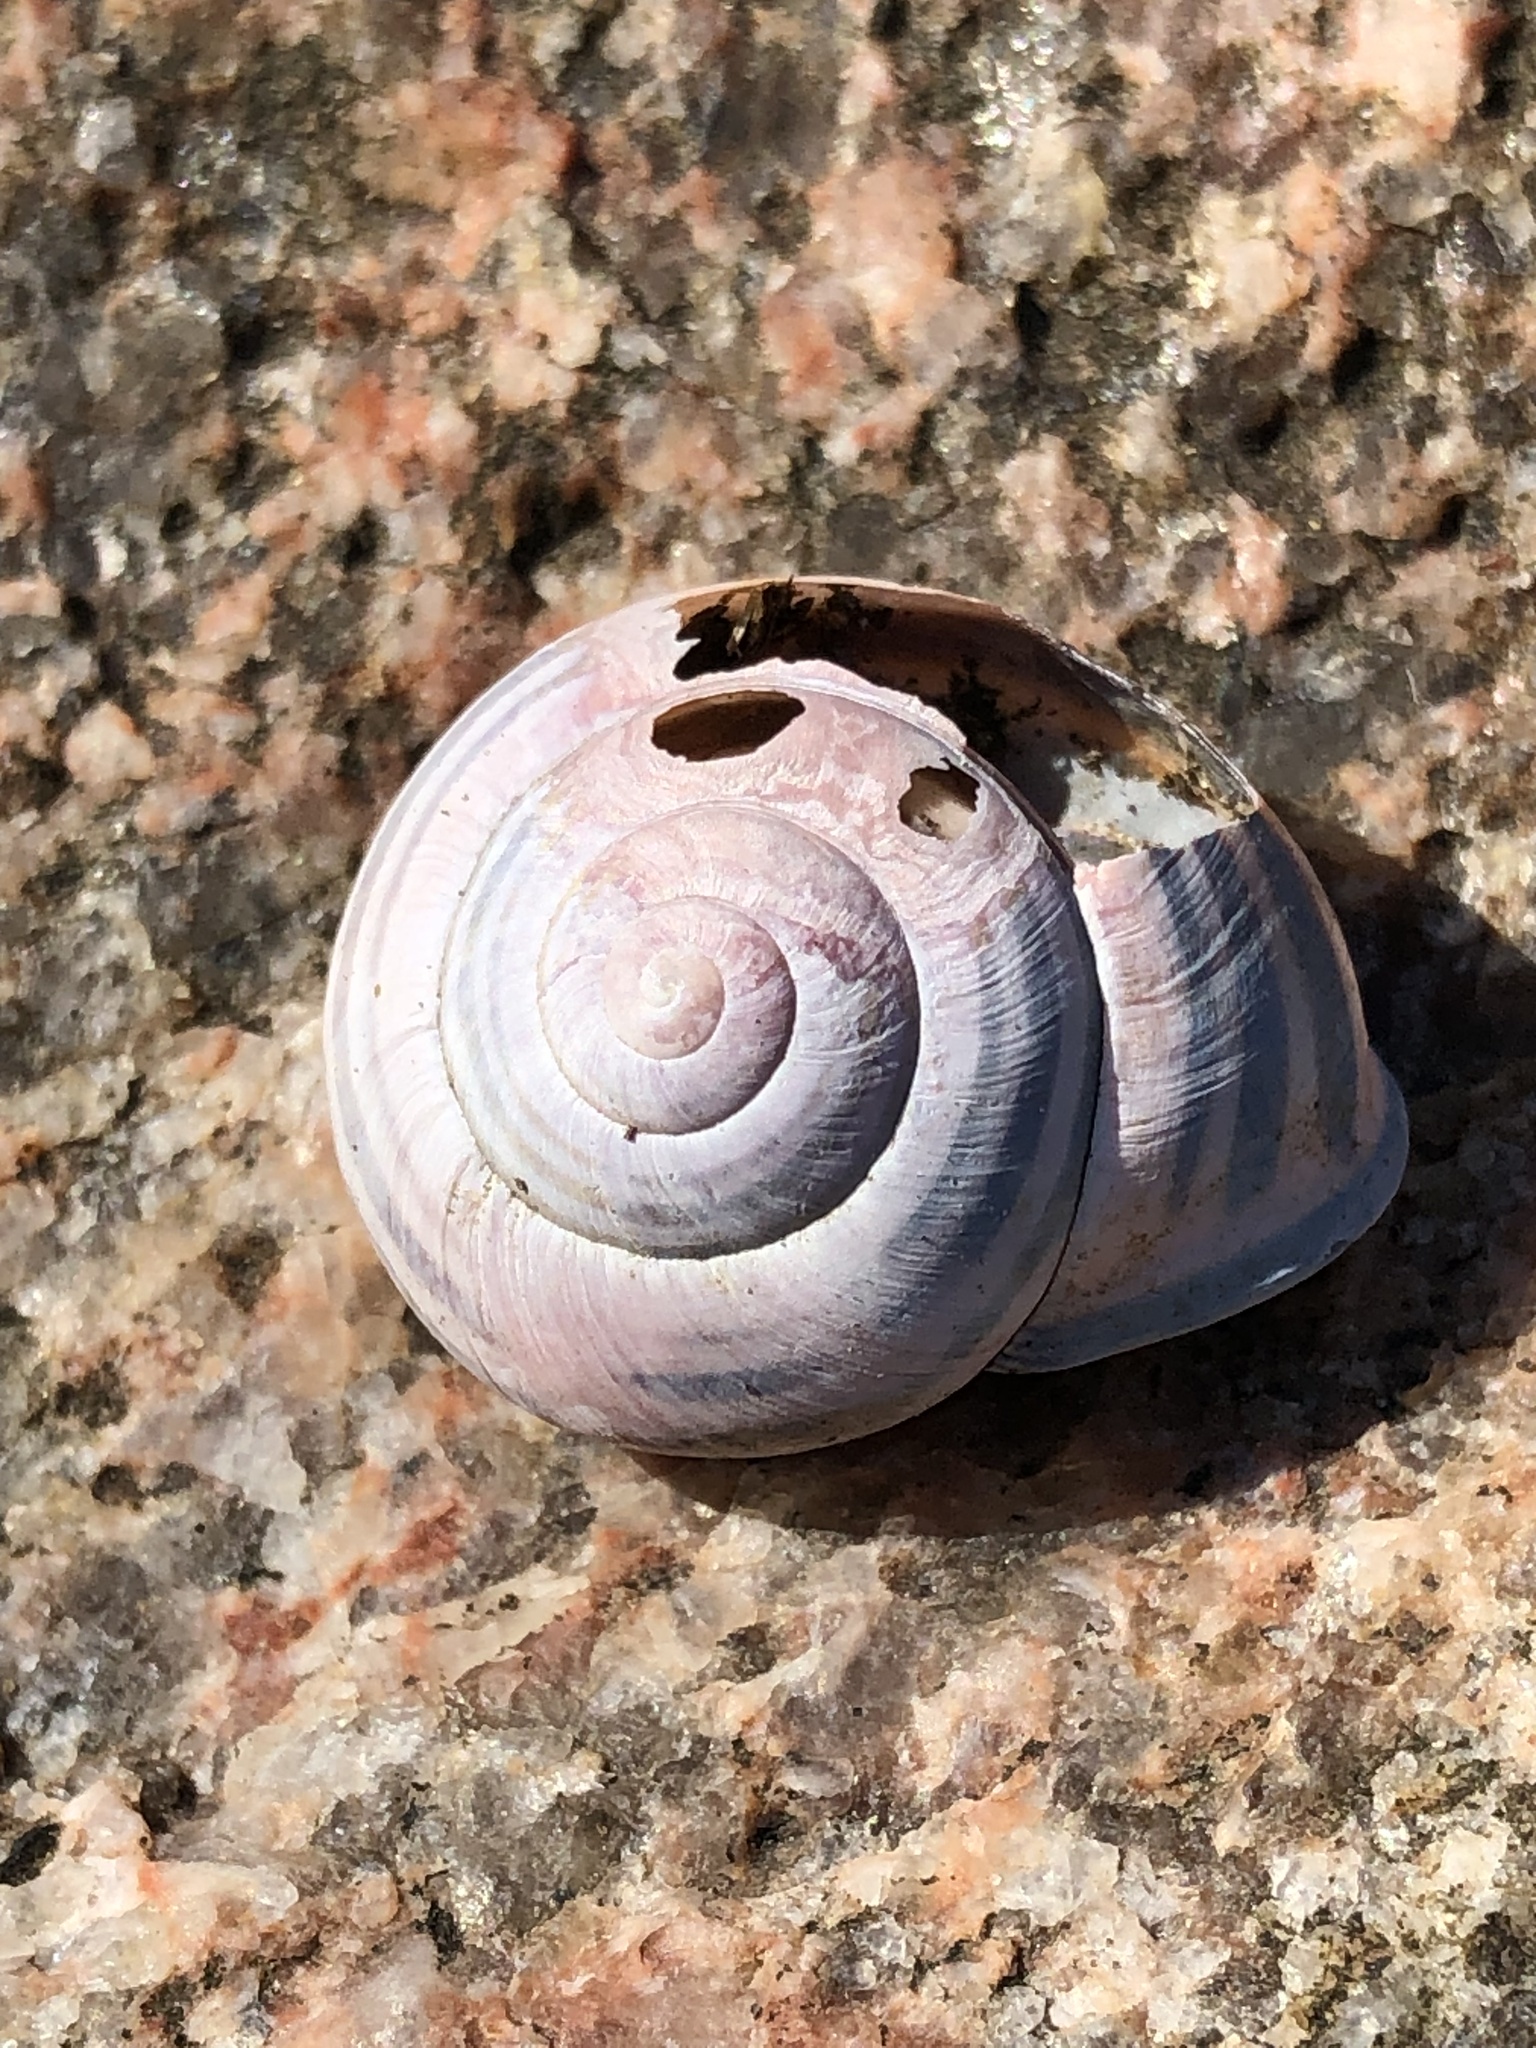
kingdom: Animalia
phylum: Mollusca
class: Gastropoda
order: Stylommatophora
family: Helicidae
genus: Cepaea
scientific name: Cepaea nemoralis
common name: Grovesnail
